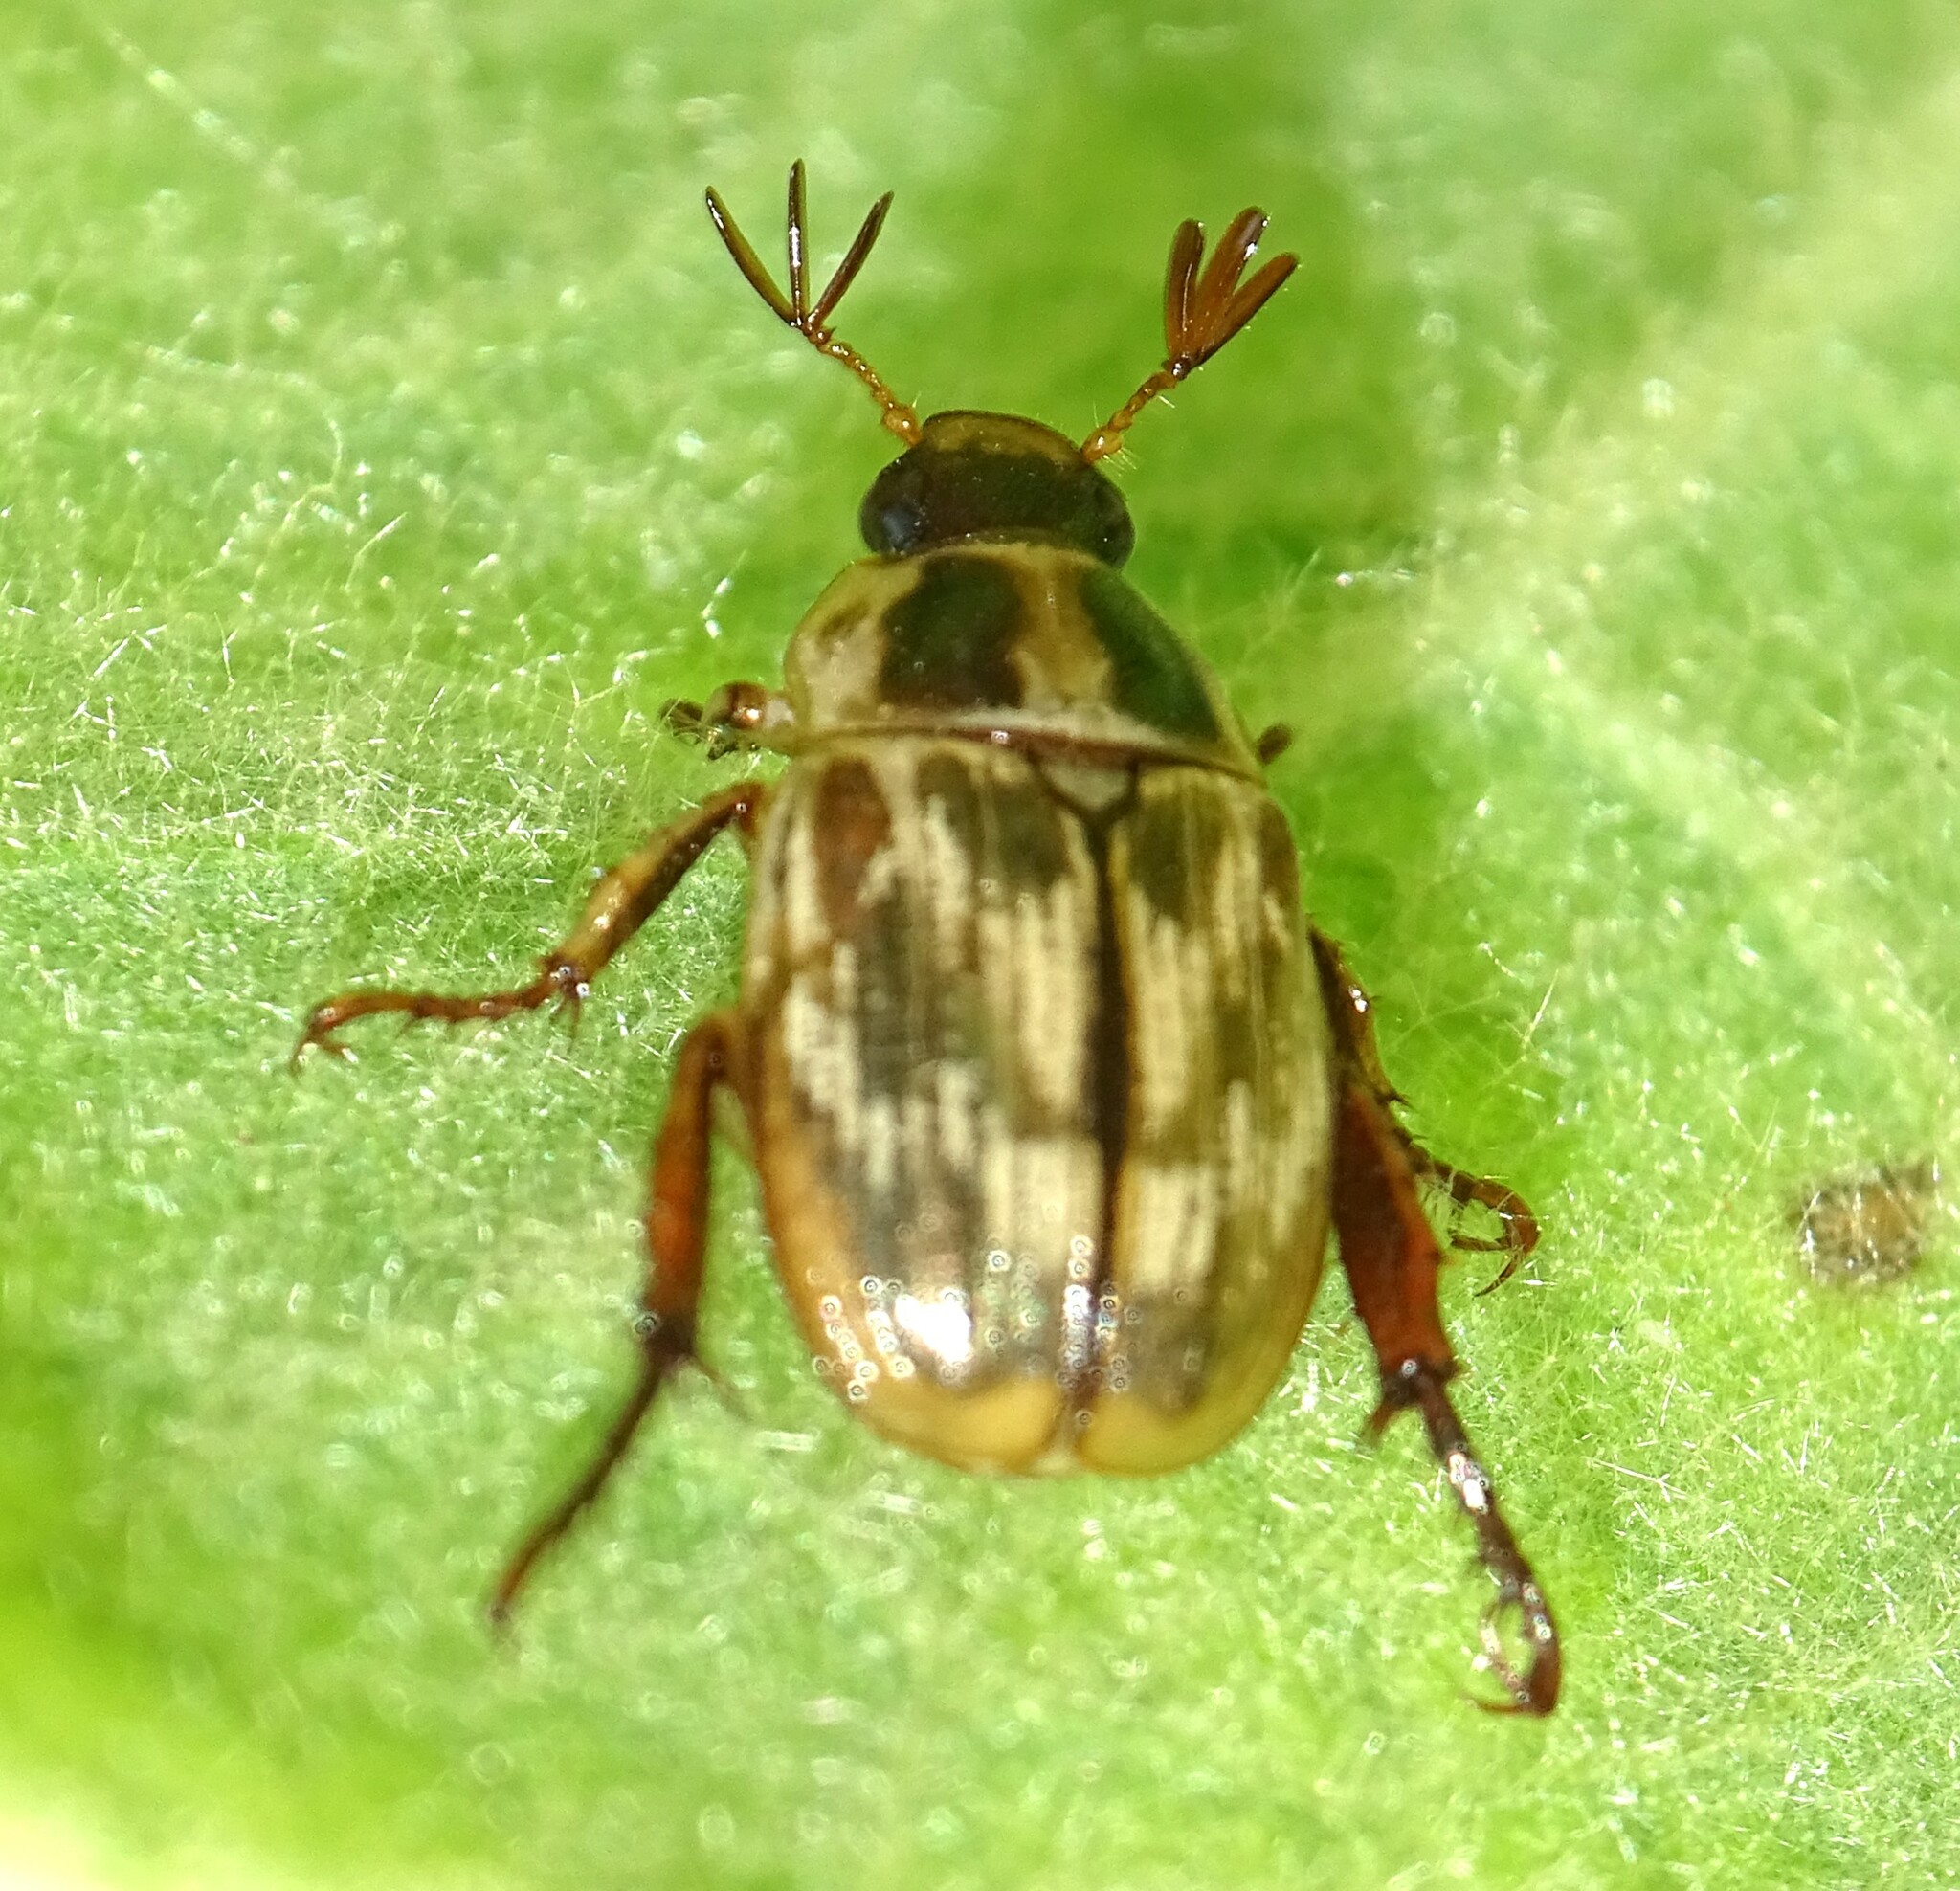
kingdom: Animalia
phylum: Arthropoda
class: Insecta
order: Coleoptera
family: Scarabaeidae
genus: Exomala
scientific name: Exomala orientalis
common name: Oriental beetle
